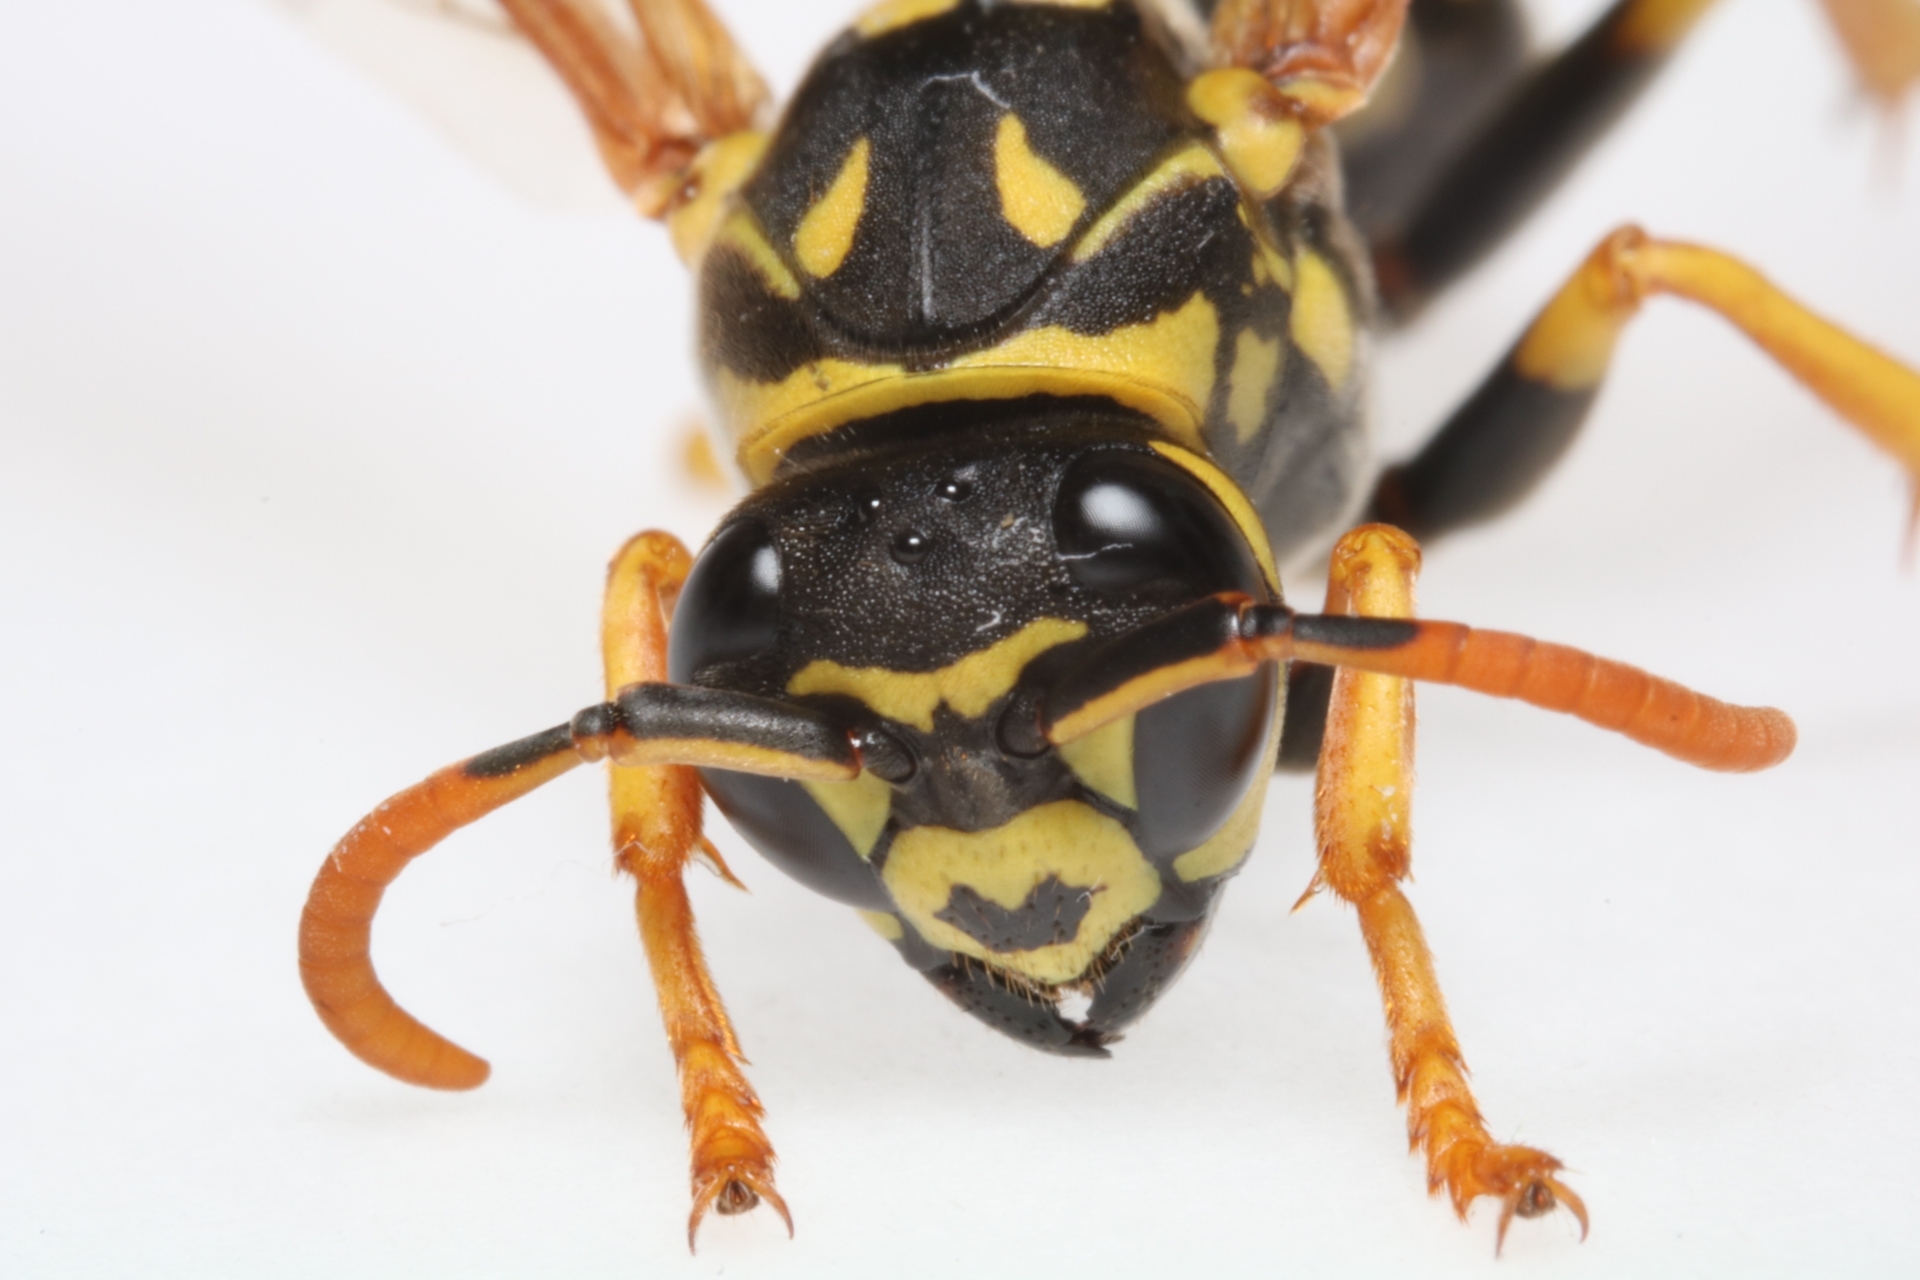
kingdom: Animalia
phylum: Arthropoda
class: Insecta
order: Hymenoptera
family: Eumenidae
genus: Polistes
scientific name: Polistes dominula
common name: Paper wasp
